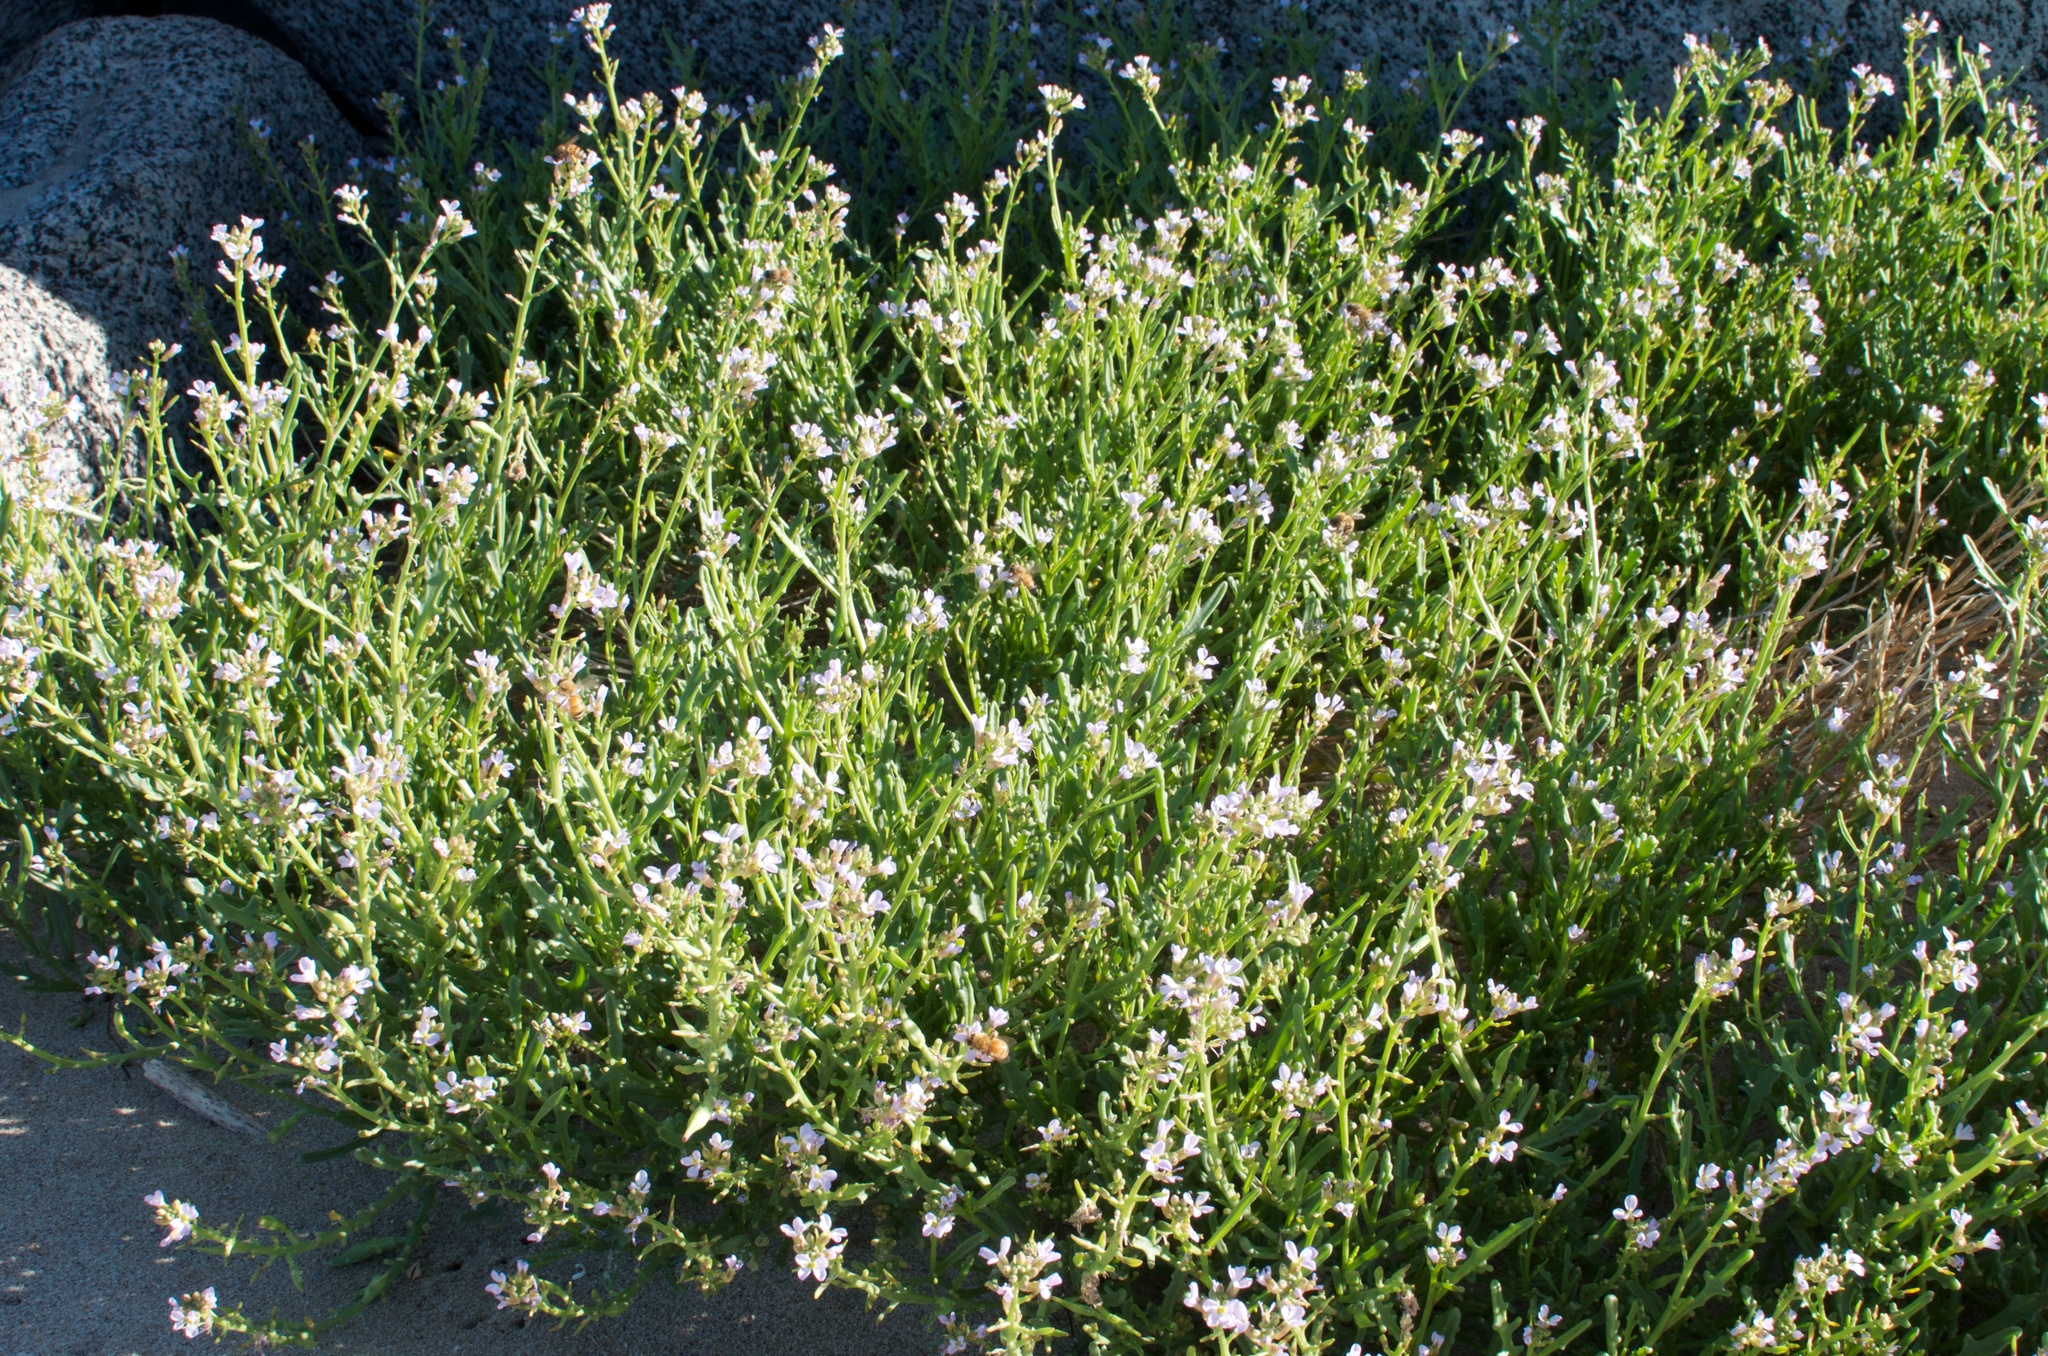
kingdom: Plantae
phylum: Tracheophyta
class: Magnoliopsida
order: Brassicales
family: Brassicaceae
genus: Cakile
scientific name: Cakile maritima
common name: Sea rocket
